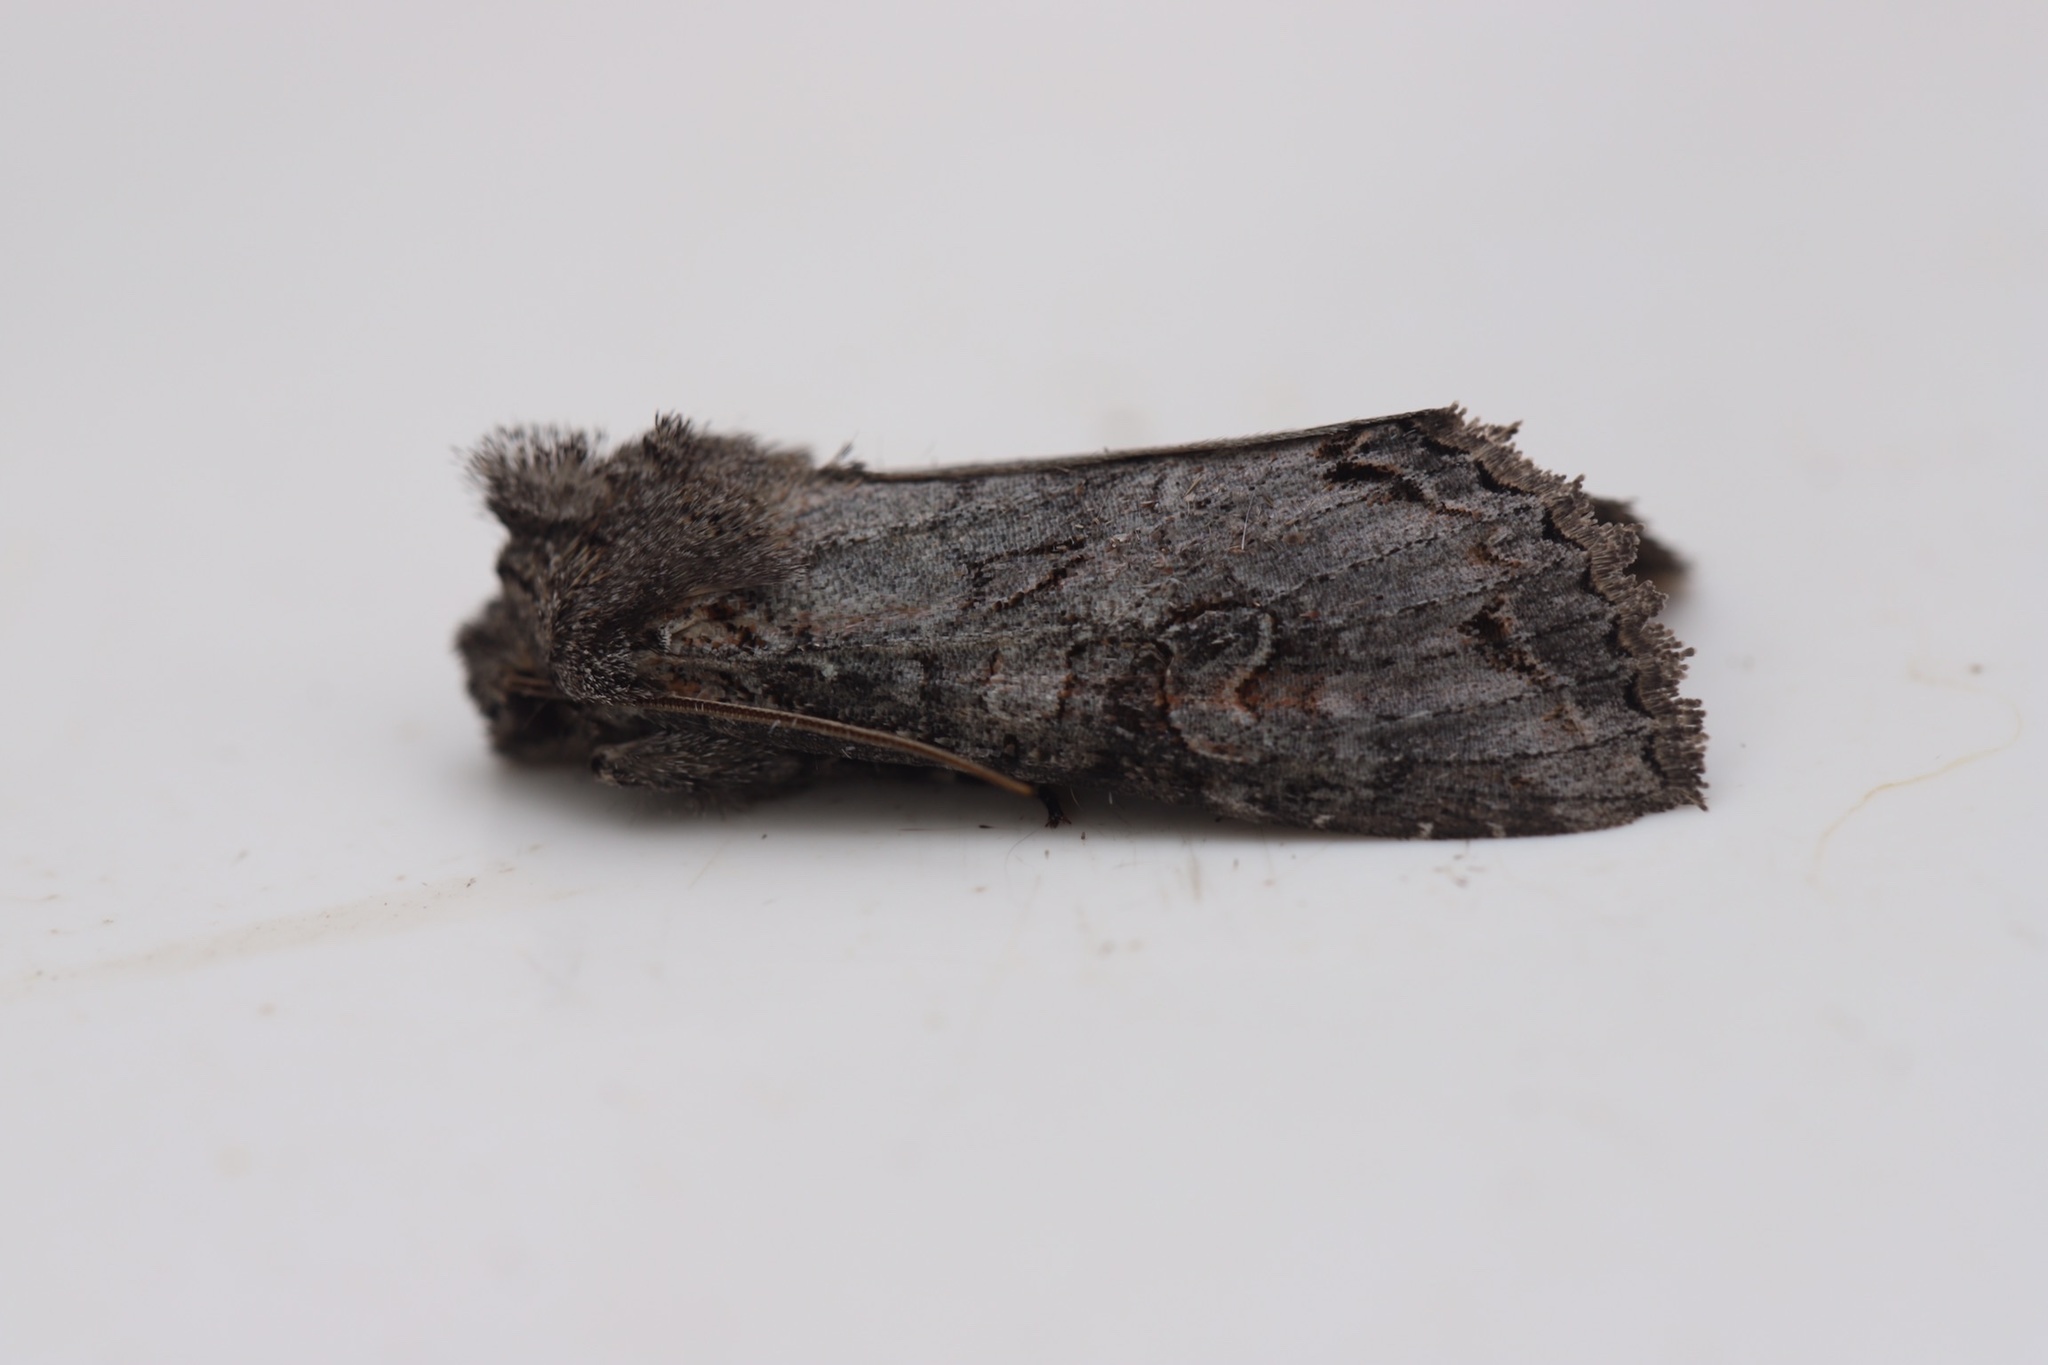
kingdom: Animalia
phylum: Arthropoda
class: Insecta
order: Lepidoptera
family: Noctuidae
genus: Polia
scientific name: Polia purpurissata
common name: Purple arches moth
